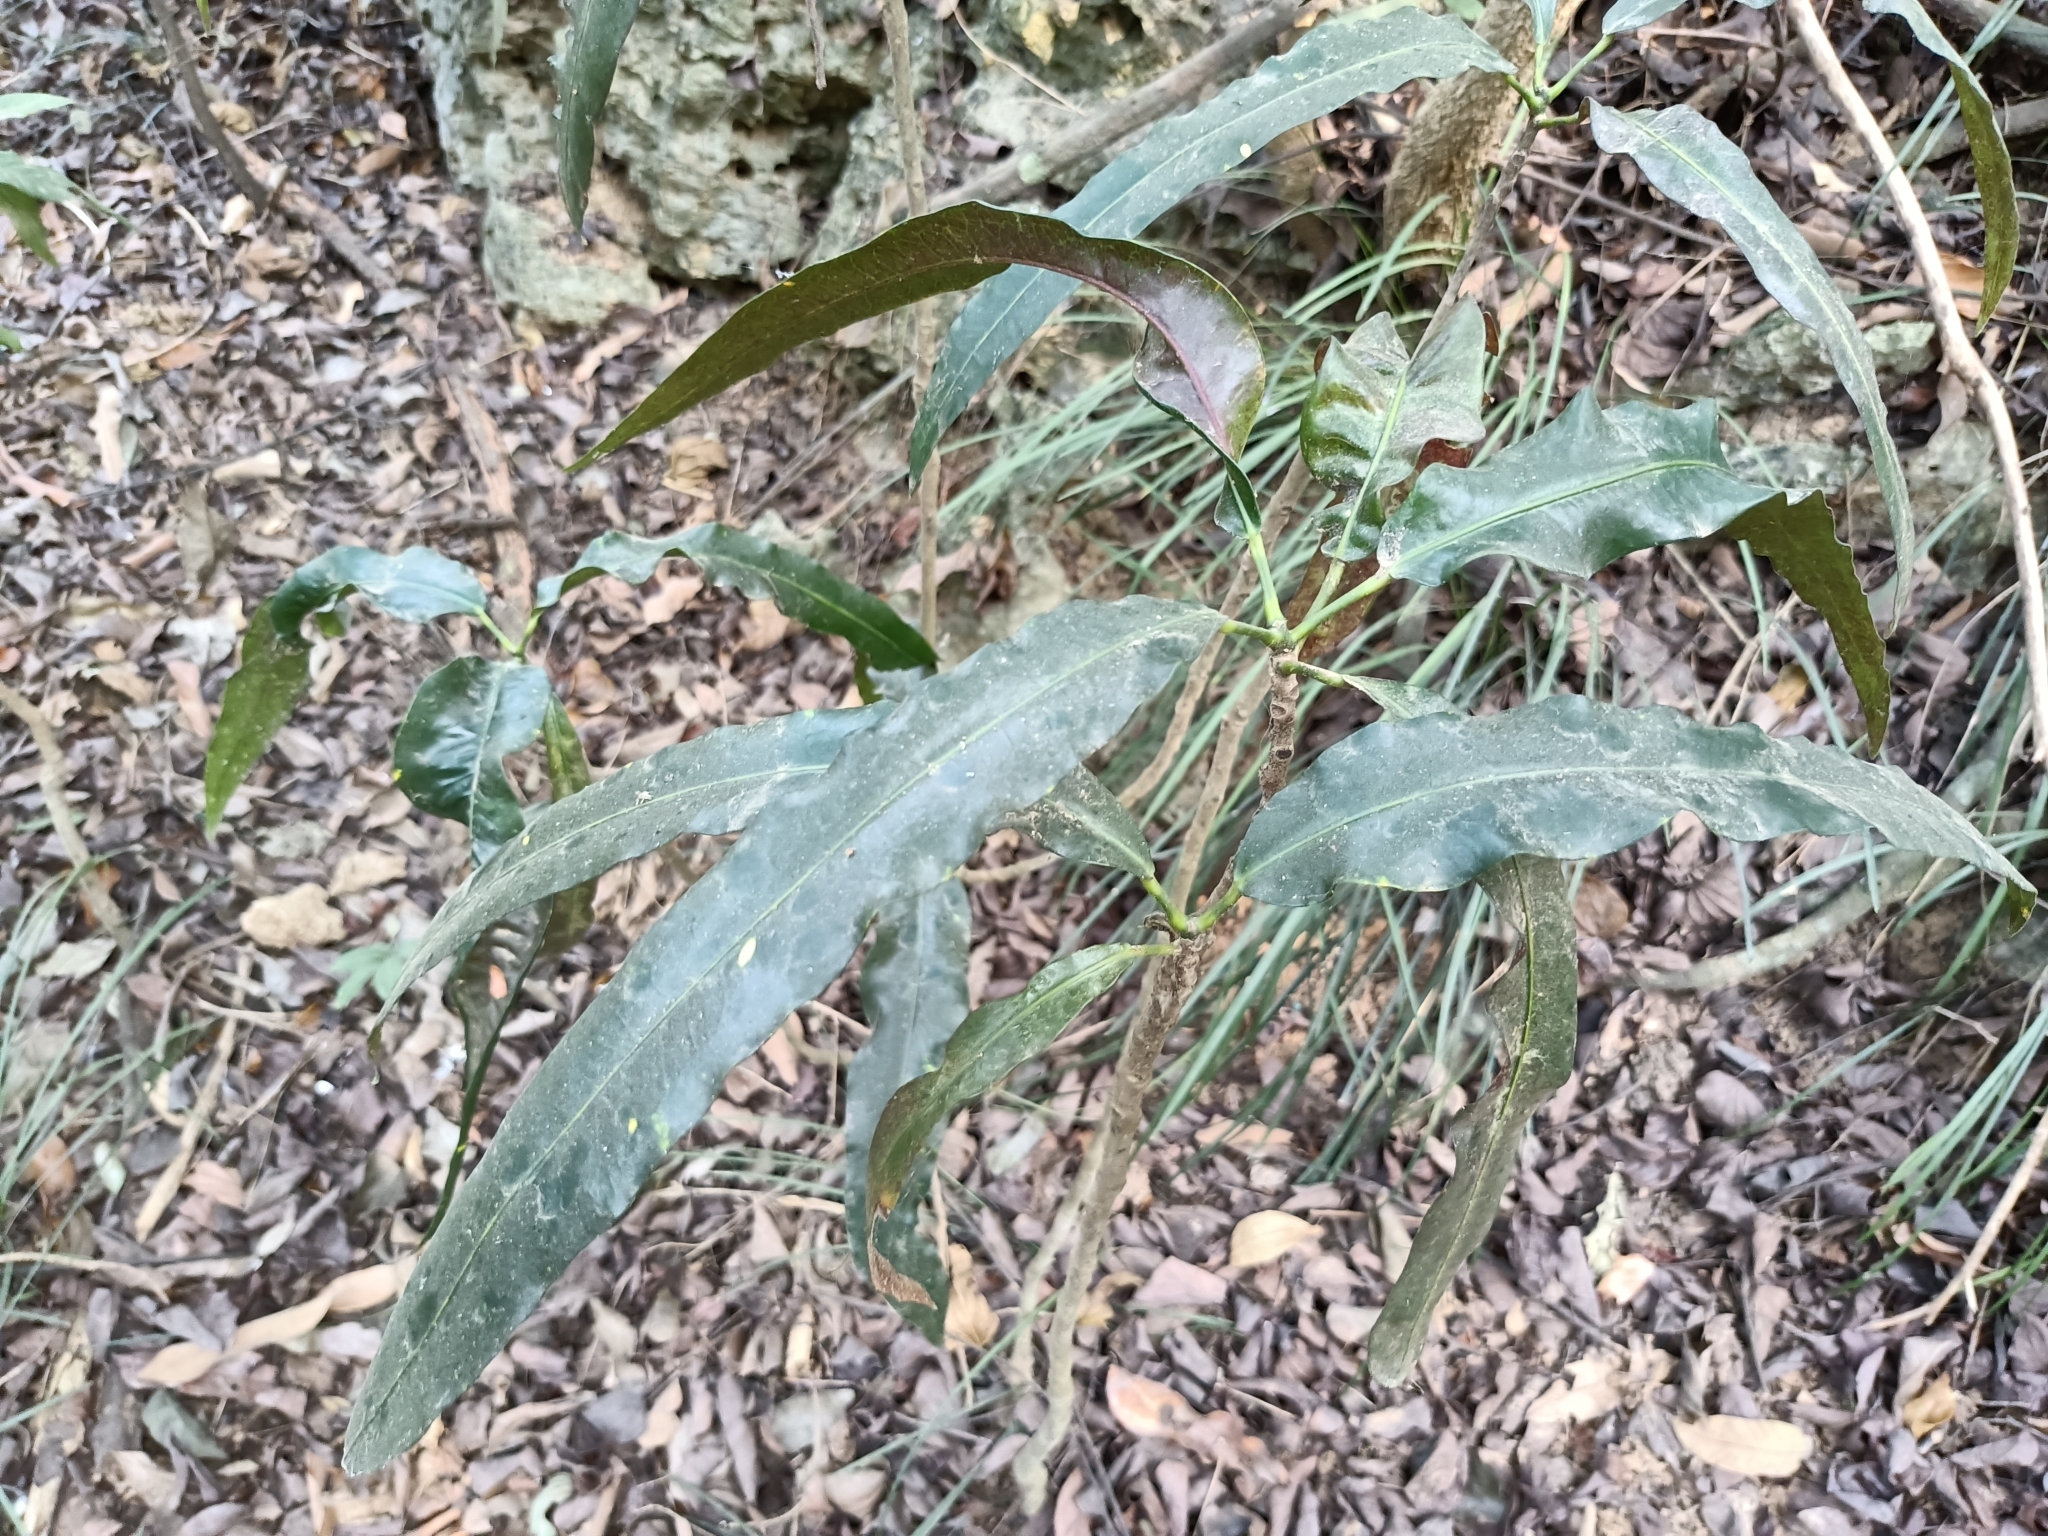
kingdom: Plantae
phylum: Tracheophyta
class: Magnoliopsida
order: Ericales
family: Primulaceae
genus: Ardisia
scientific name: Ardisia polysticta
